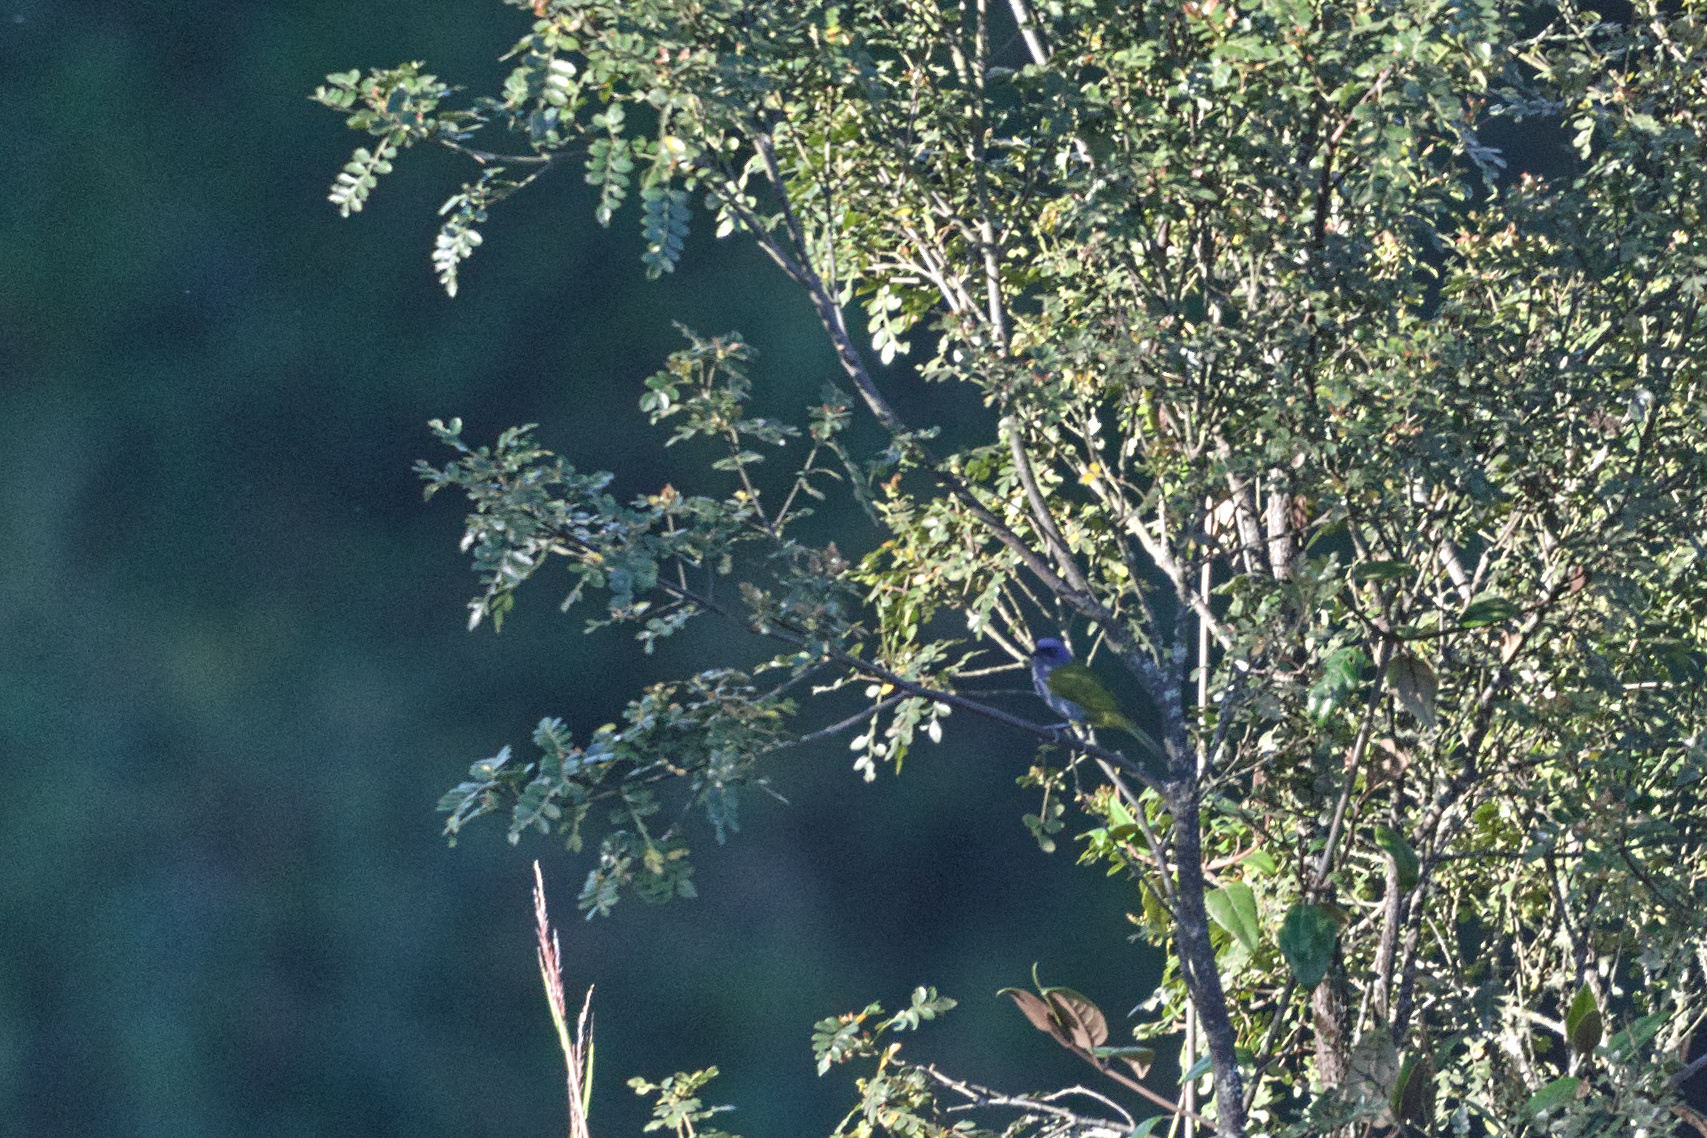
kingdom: Animalia
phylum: Chordata
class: Aves
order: Passeriformes
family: Thraupidae
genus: Sporathraupis
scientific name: Sporathraupis cyanocephala
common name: Blue-capped tanager
